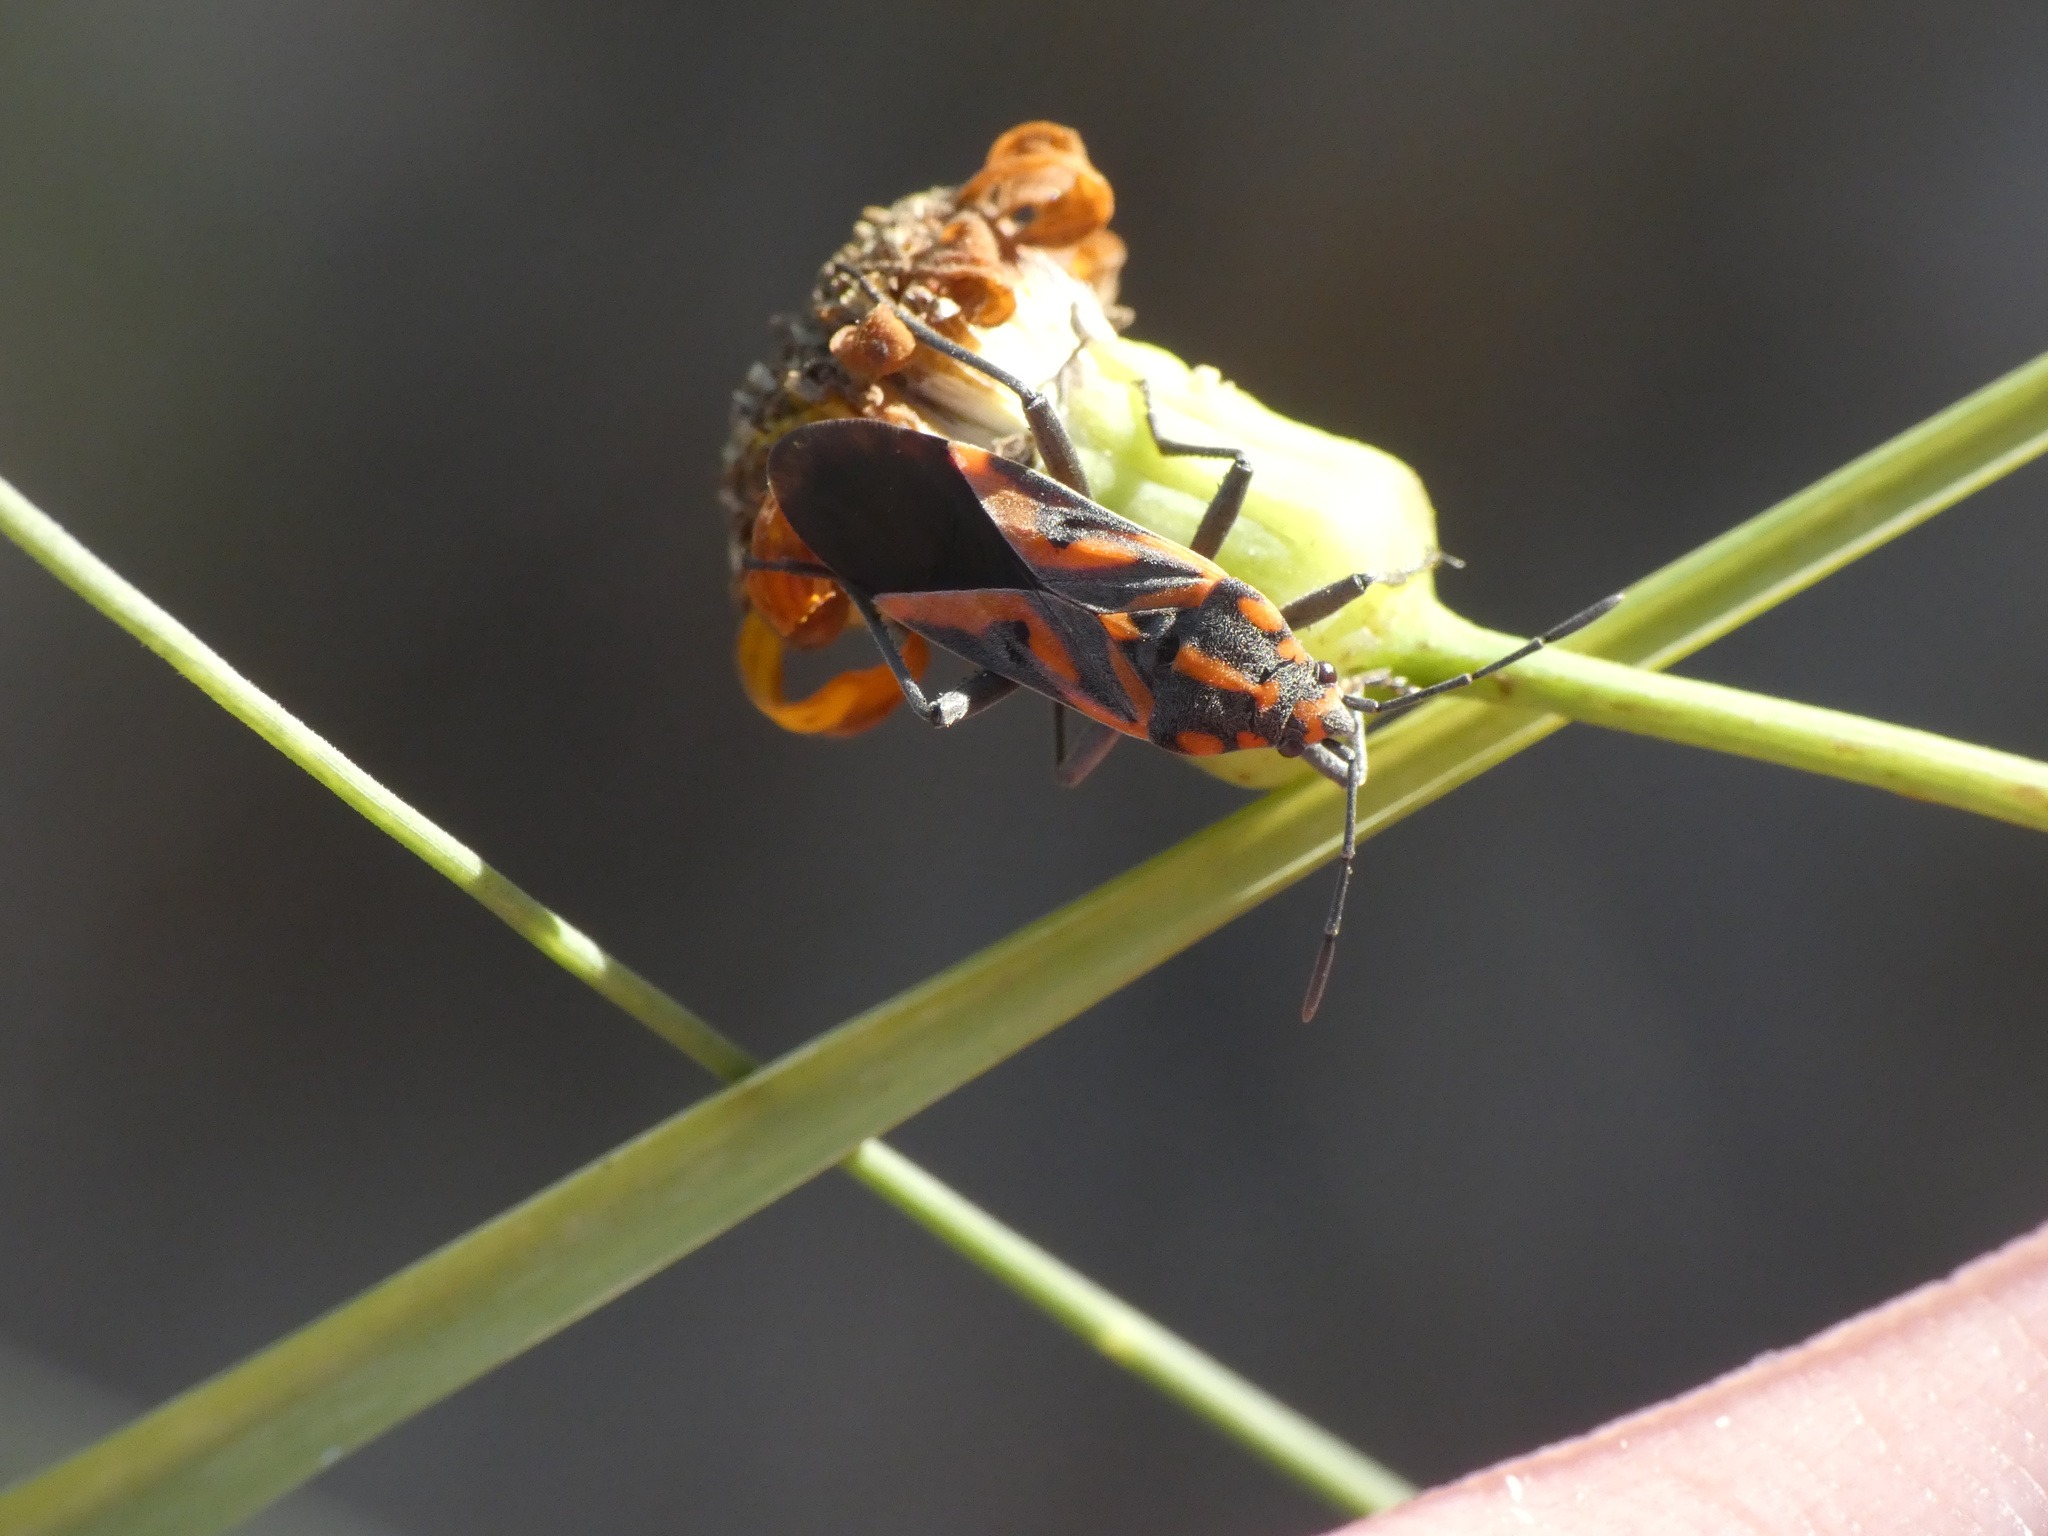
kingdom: Animalia
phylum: Arthropoda
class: Insecta
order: Hemiptera
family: Lygaeidae
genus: Spilostethus
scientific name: Spilostethus furcula
